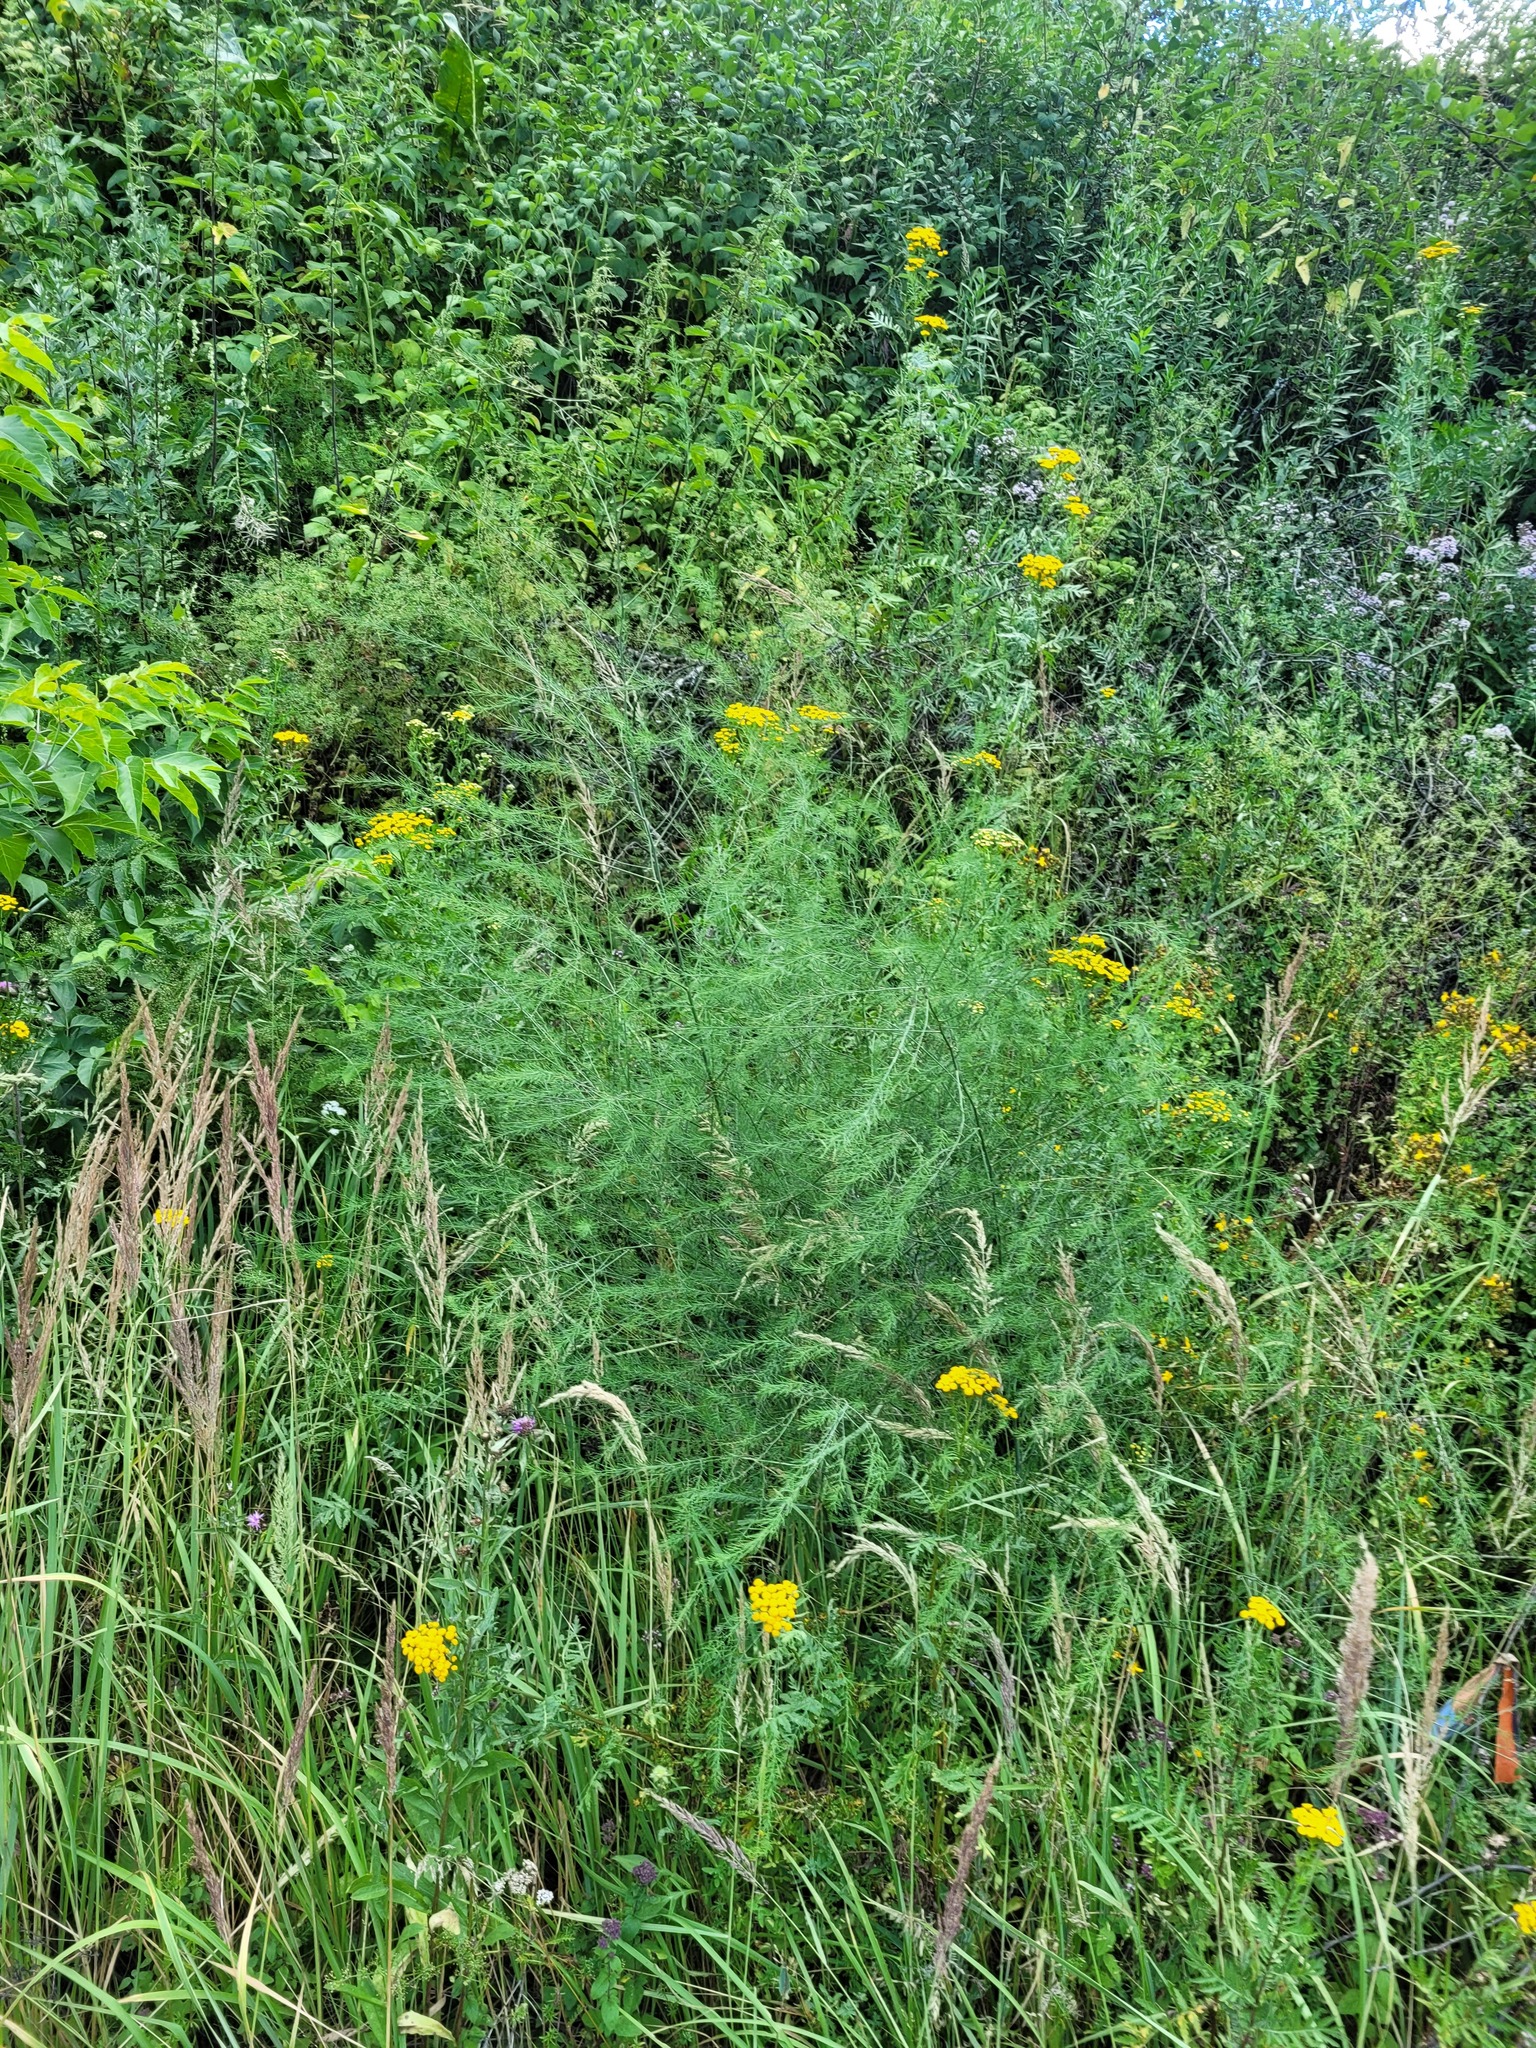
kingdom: Plantae
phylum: Tracheophyta
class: Liliopsida
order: Asparagales
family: Asparagaceae
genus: Asparagus
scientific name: Asparagus officinalis
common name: Garden asparagus
